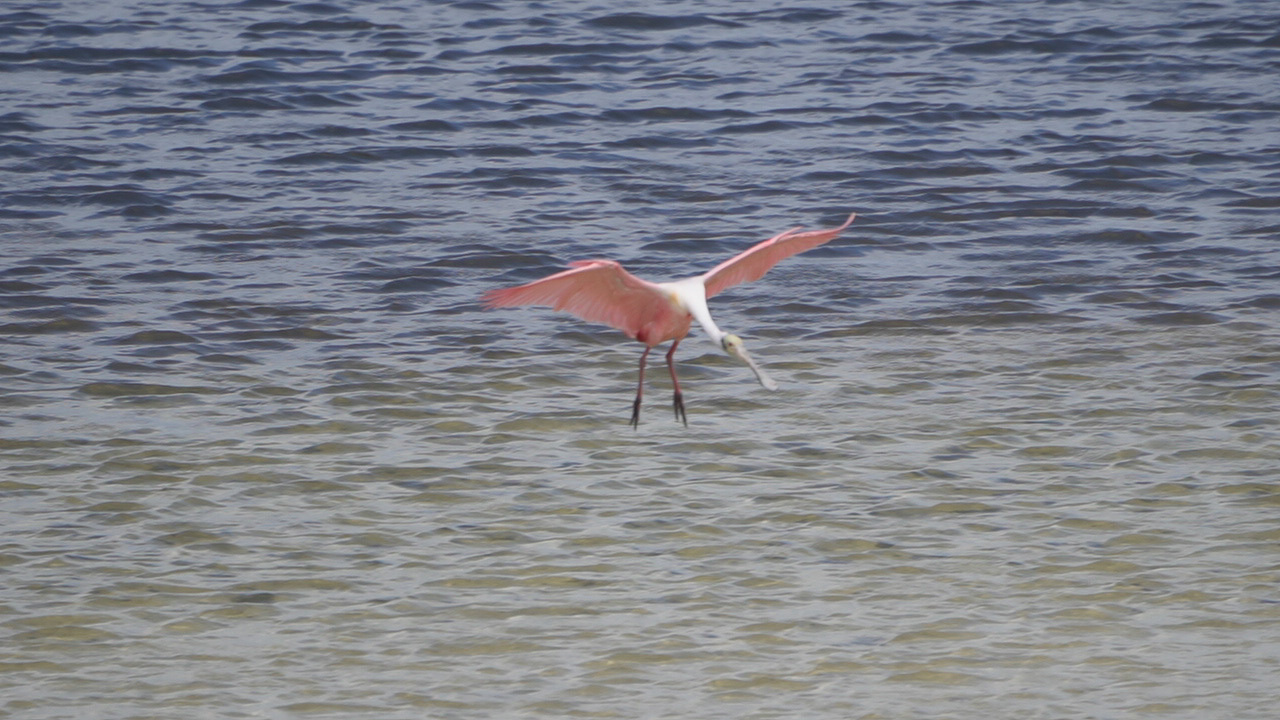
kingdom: Animalia
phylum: Chordata
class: Aves
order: Pelecaniformes
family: Threskiornithidae
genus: Platalea
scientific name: Platalea ajaja
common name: Roseate spoonbill
